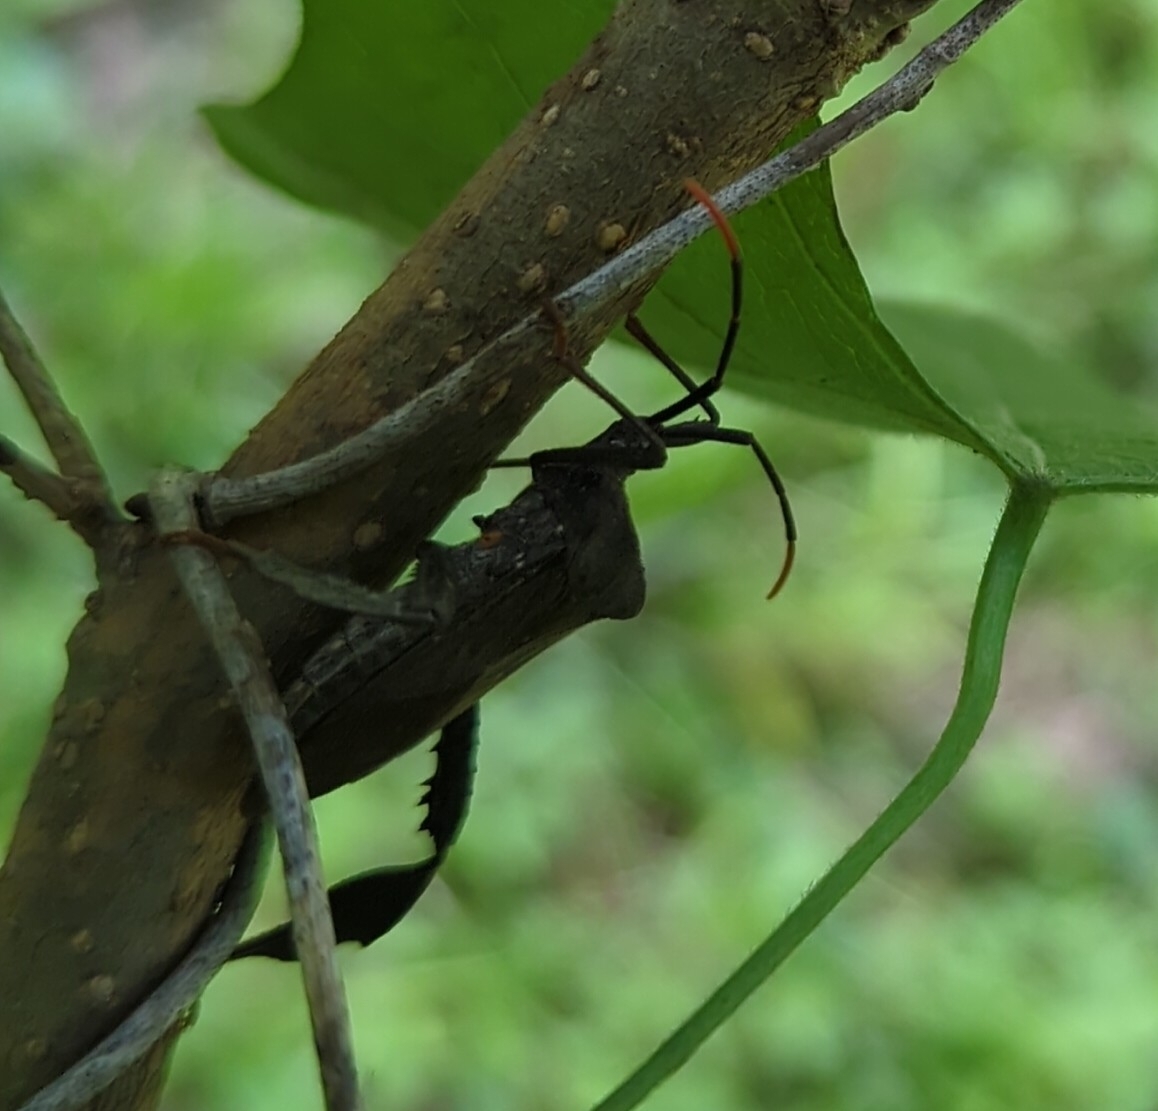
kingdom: Animalia
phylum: Arthropoda
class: Insecta
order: Hemiptera
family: Coreidae
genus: Acanthocephala
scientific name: Acanthocephala terminalis
